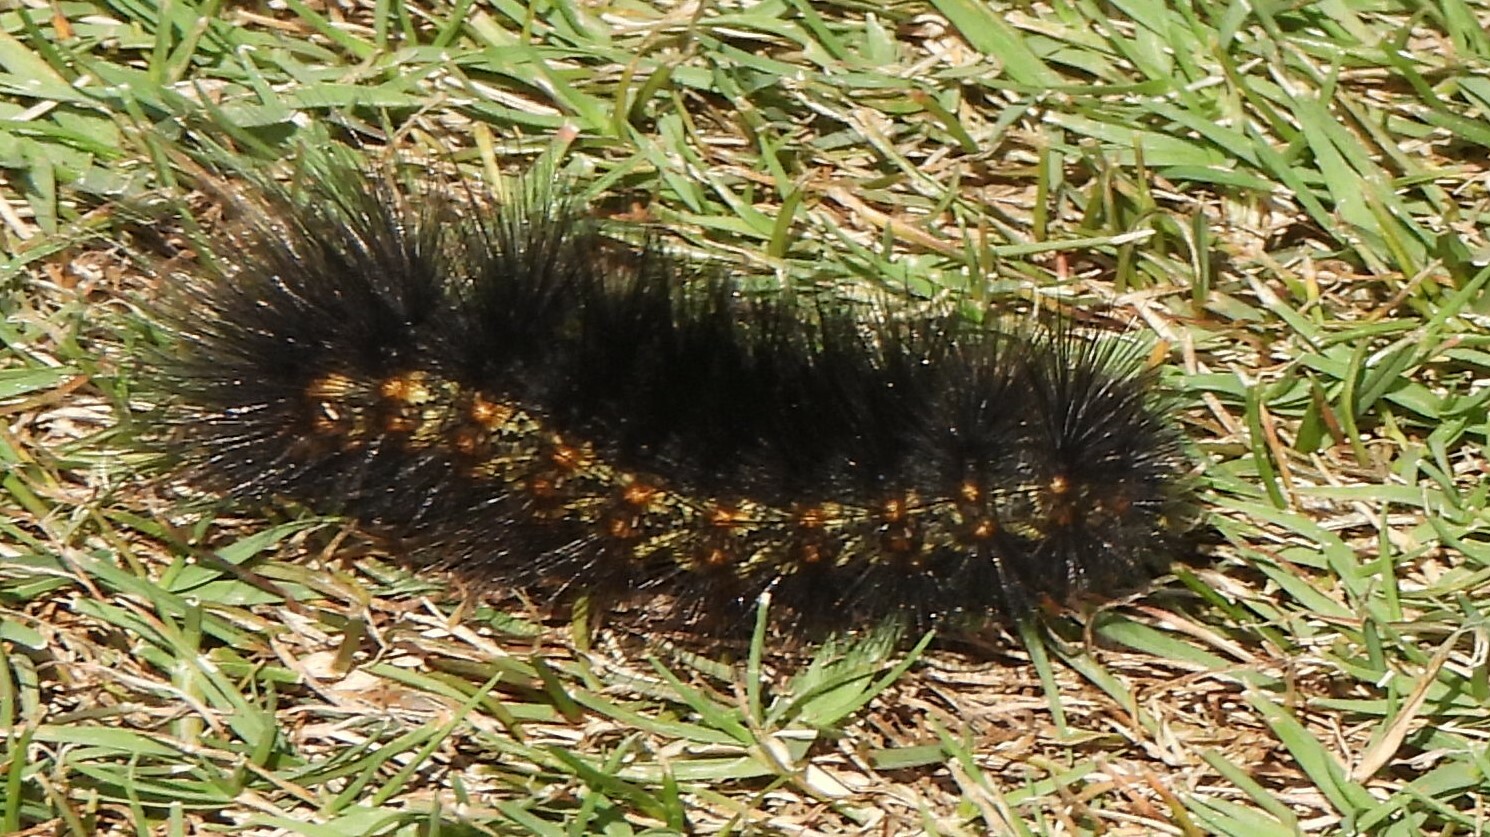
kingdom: Animalia
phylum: Arthropoda
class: Insecta
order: Lepidoptera
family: Erebidae
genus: Estigmene
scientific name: Estigmene acrea
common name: Salt marsh moth
